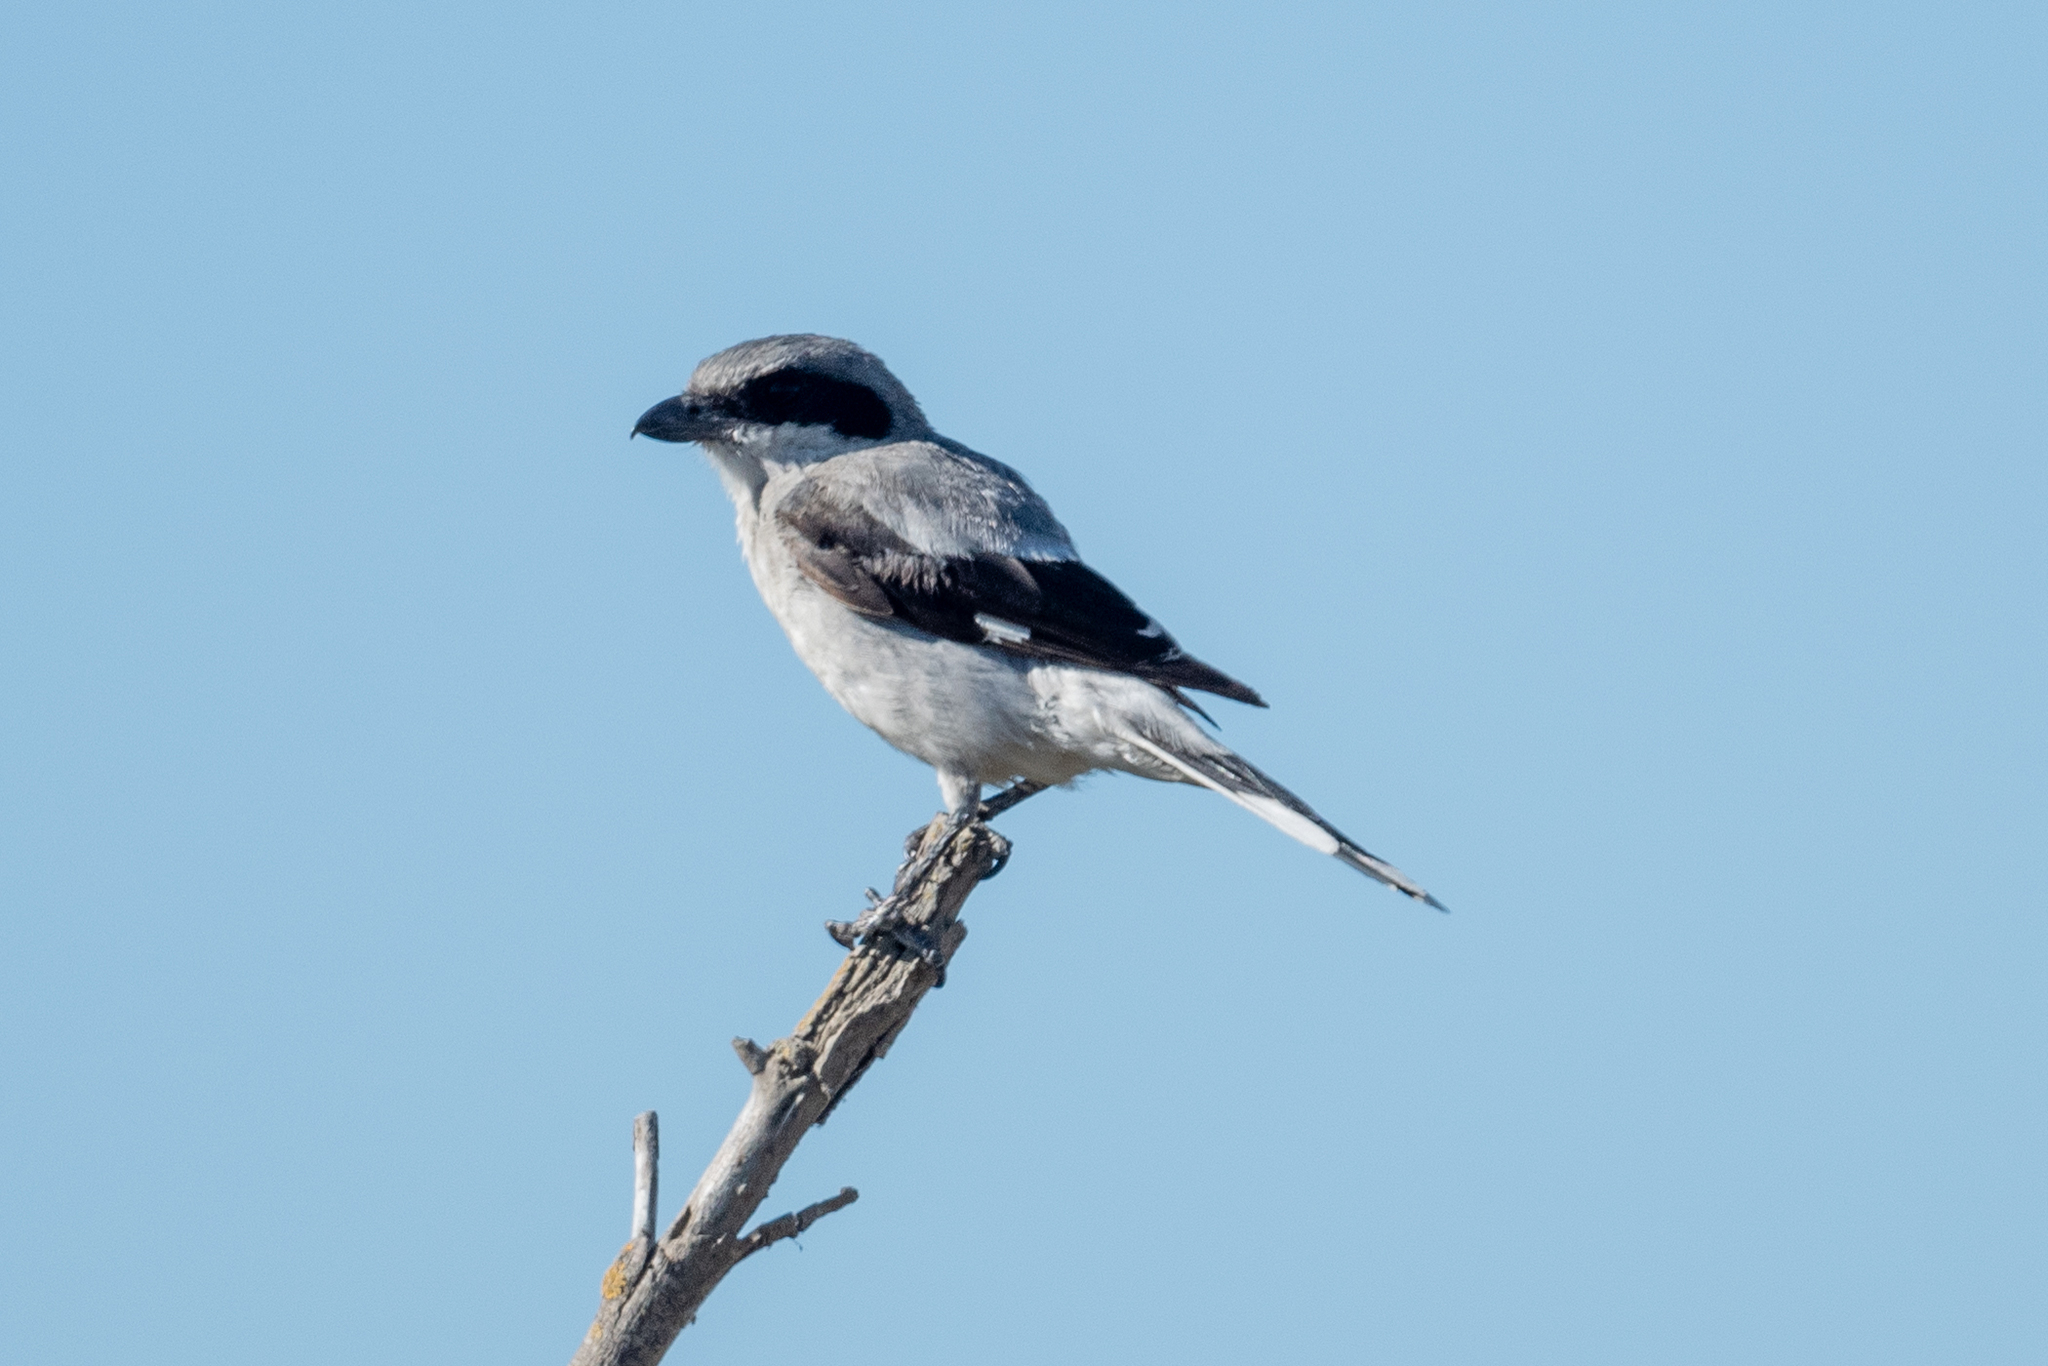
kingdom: Animalia
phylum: Chordata
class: Aves
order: Passeriformes
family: Laniidae
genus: Lanius
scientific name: Lanius ludovicianus
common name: Loggerhead shrike
